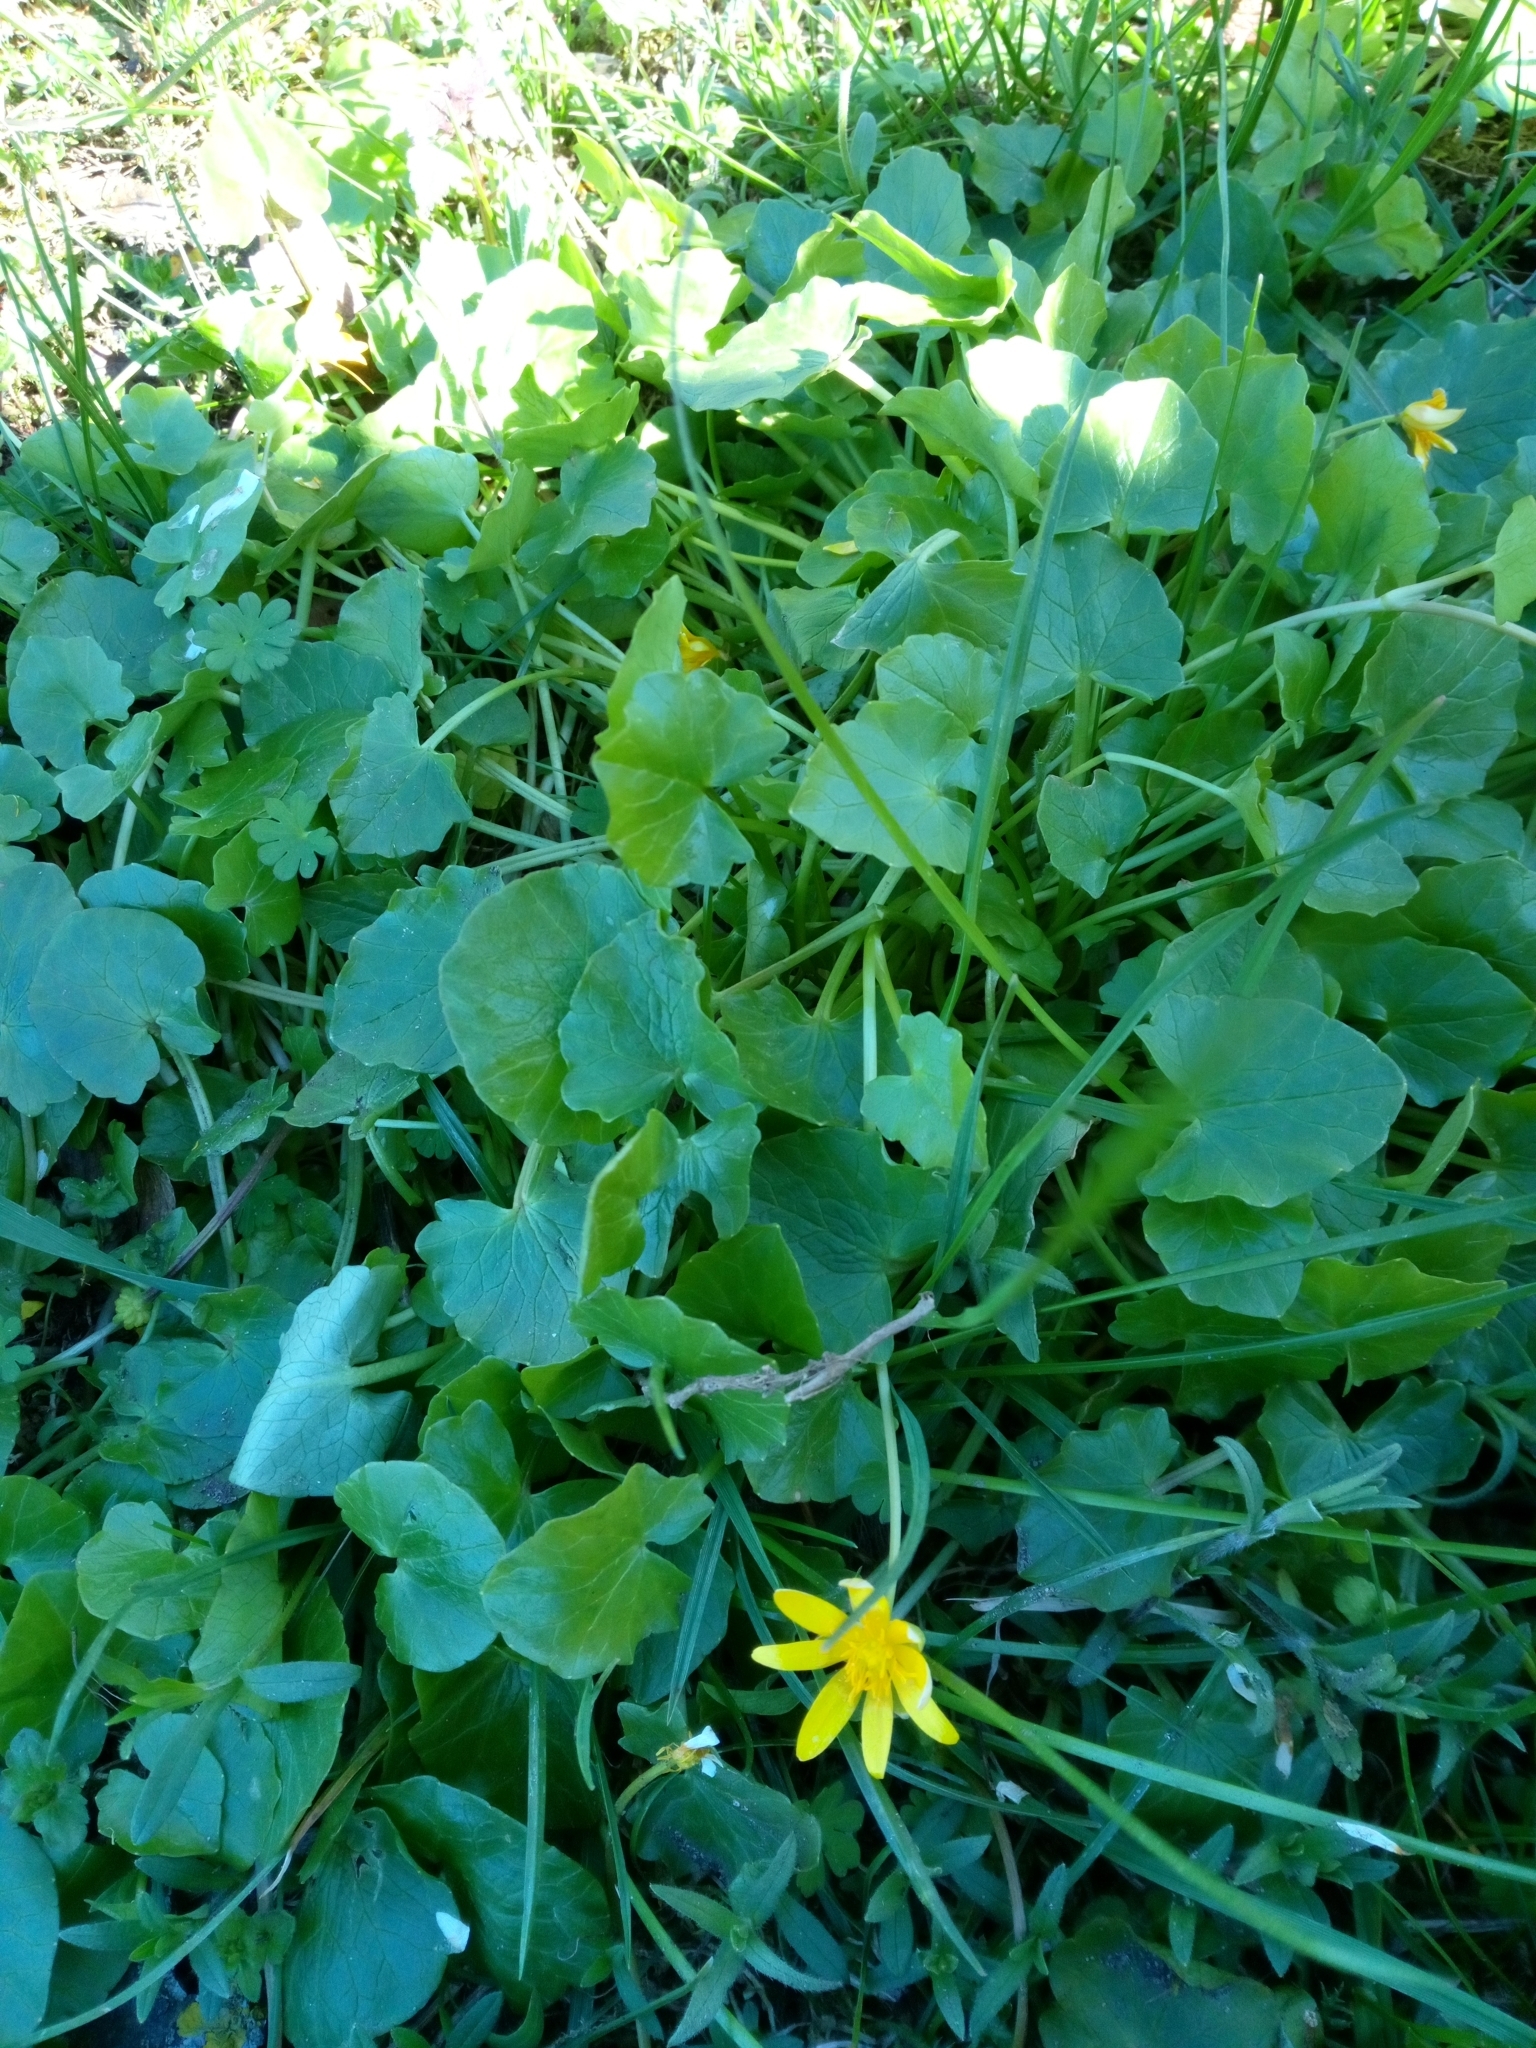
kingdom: Plantae
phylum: Tracheophyta
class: Magnoliopsida
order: Ranunculales
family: Ranunculaceae
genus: Ficaria
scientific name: Ficaria verna
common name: Lesser celandine
